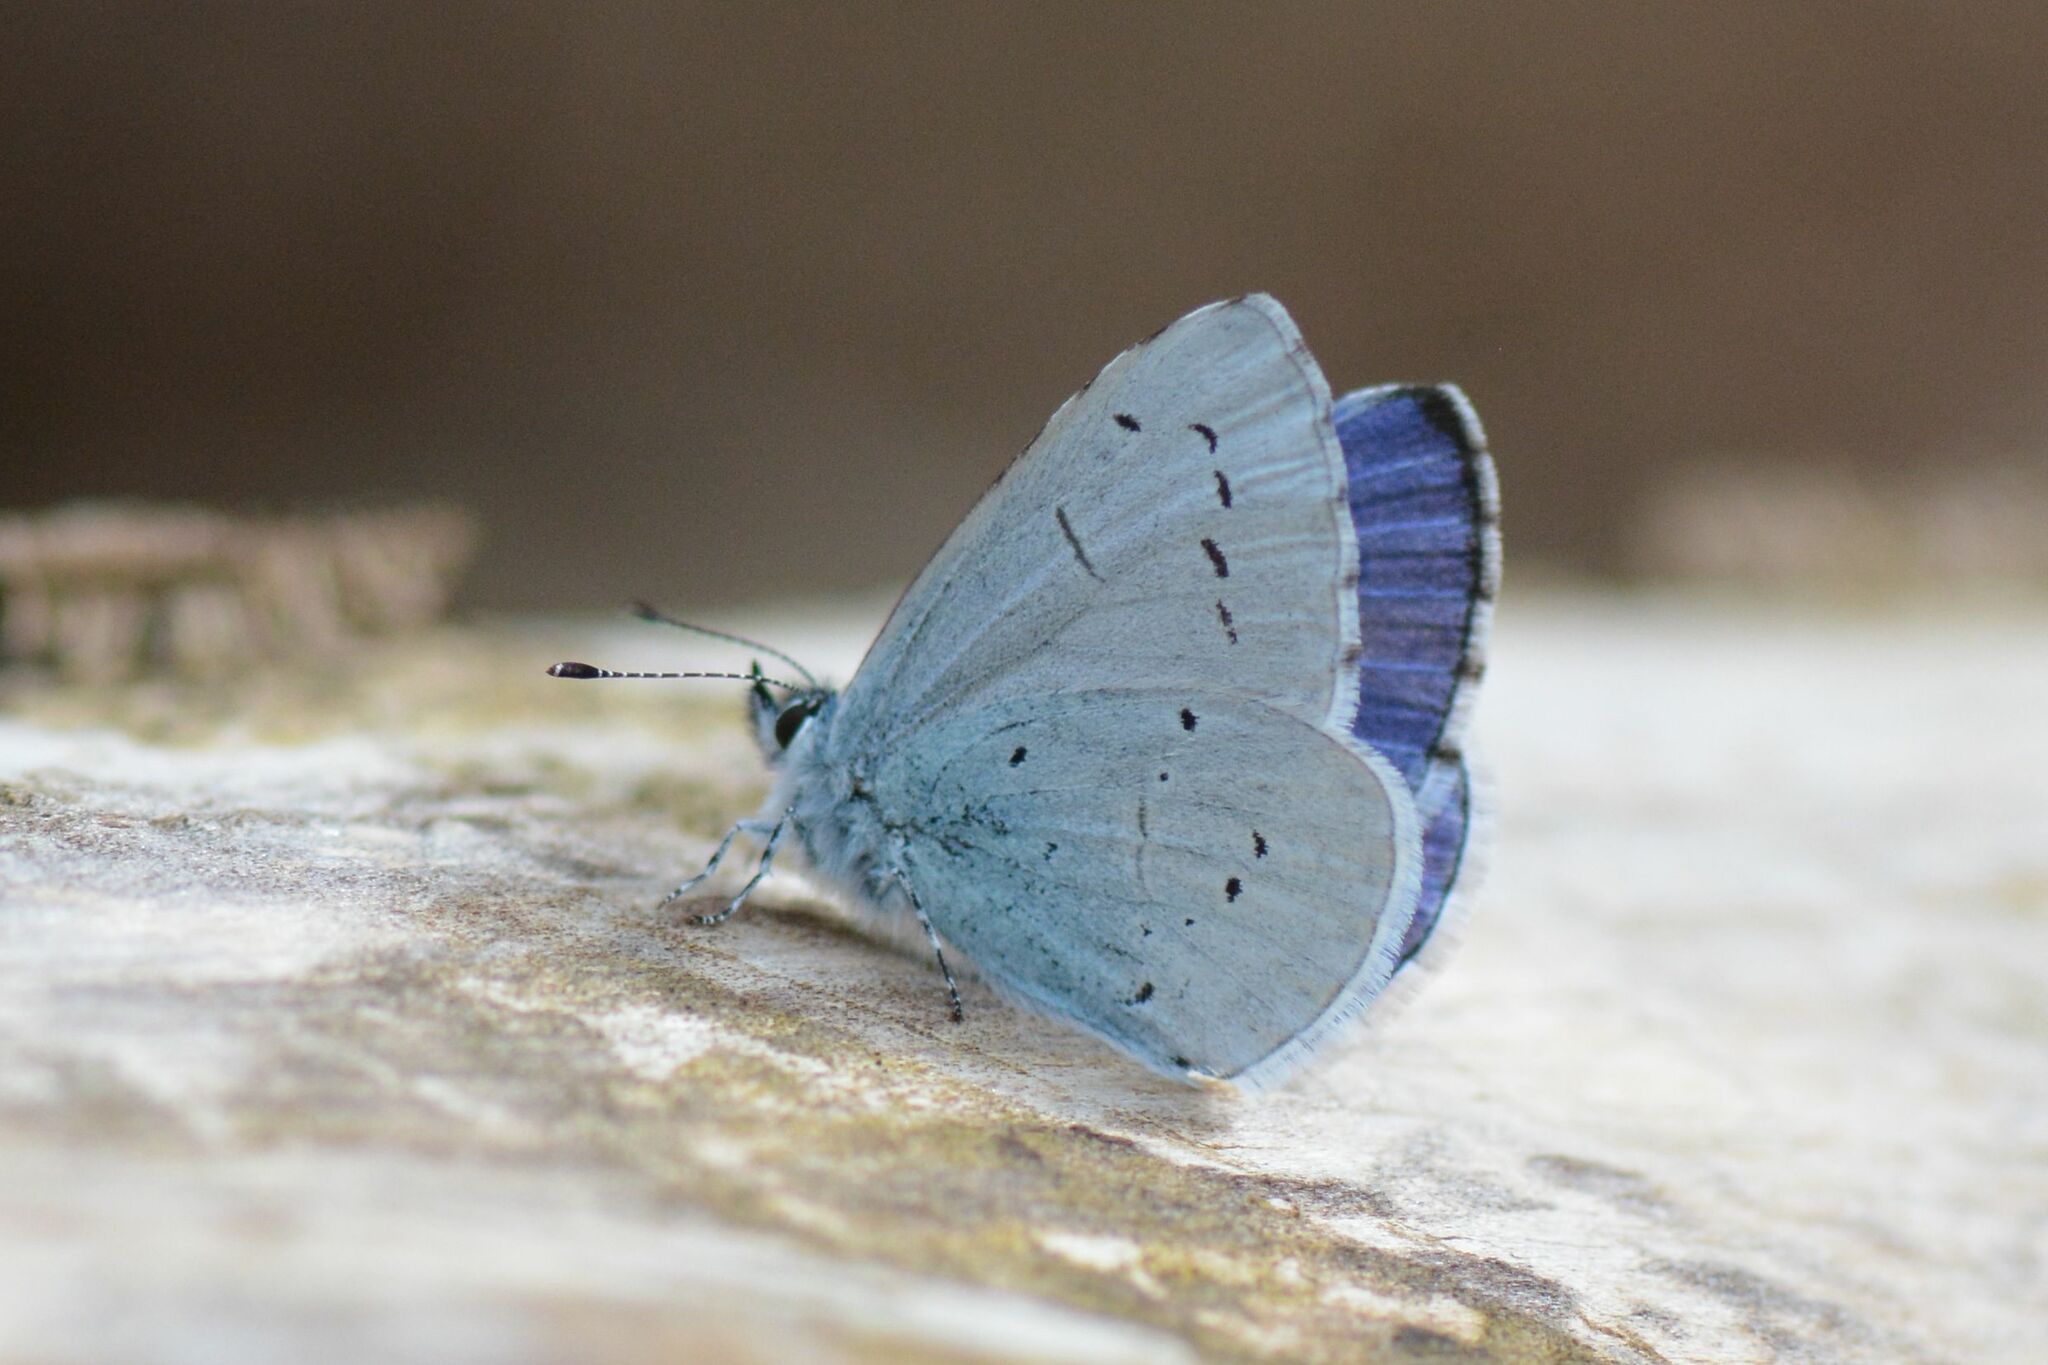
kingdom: Animalia
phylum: Arthropoda
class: Insecta
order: Lepidoptera
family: Lycaenidae
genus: Celastrina
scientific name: Celastrina argiolus
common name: Holly blue
